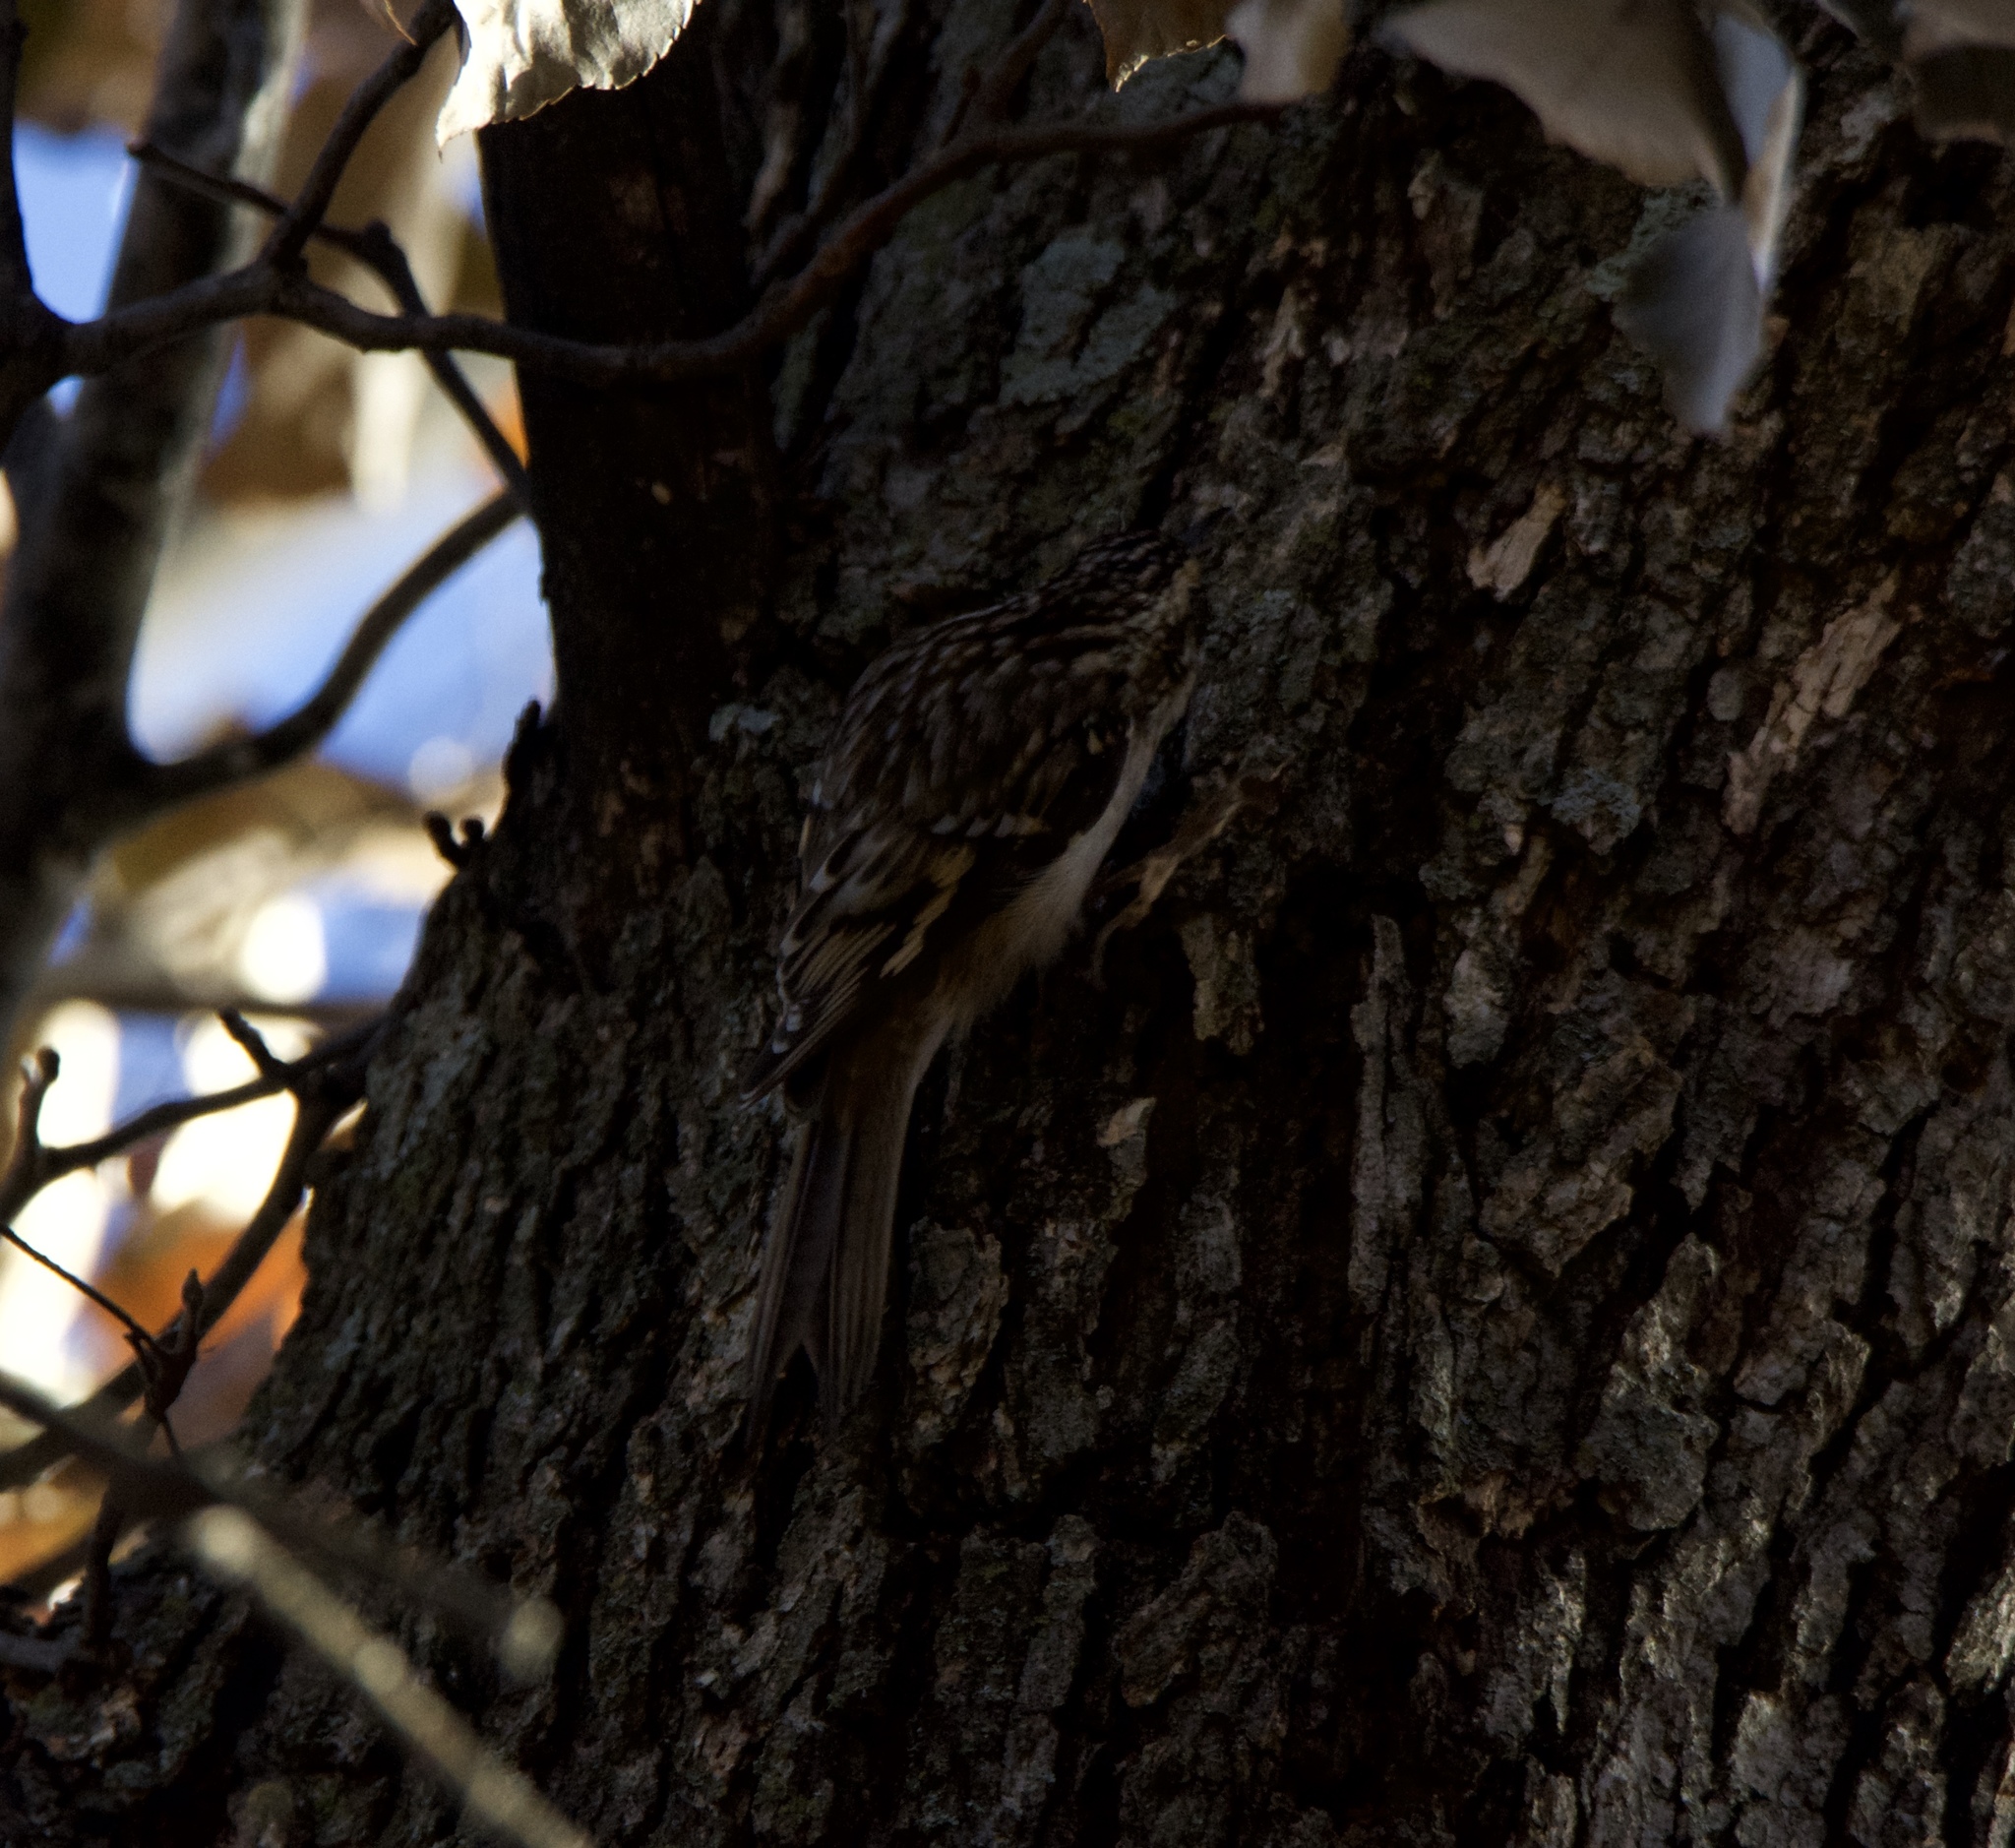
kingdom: Animalia
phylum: Chordata
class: Aves
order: Passeriformes
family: Certhiidae
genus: Certhia
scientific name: Certhia americana
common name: Brown creeper
